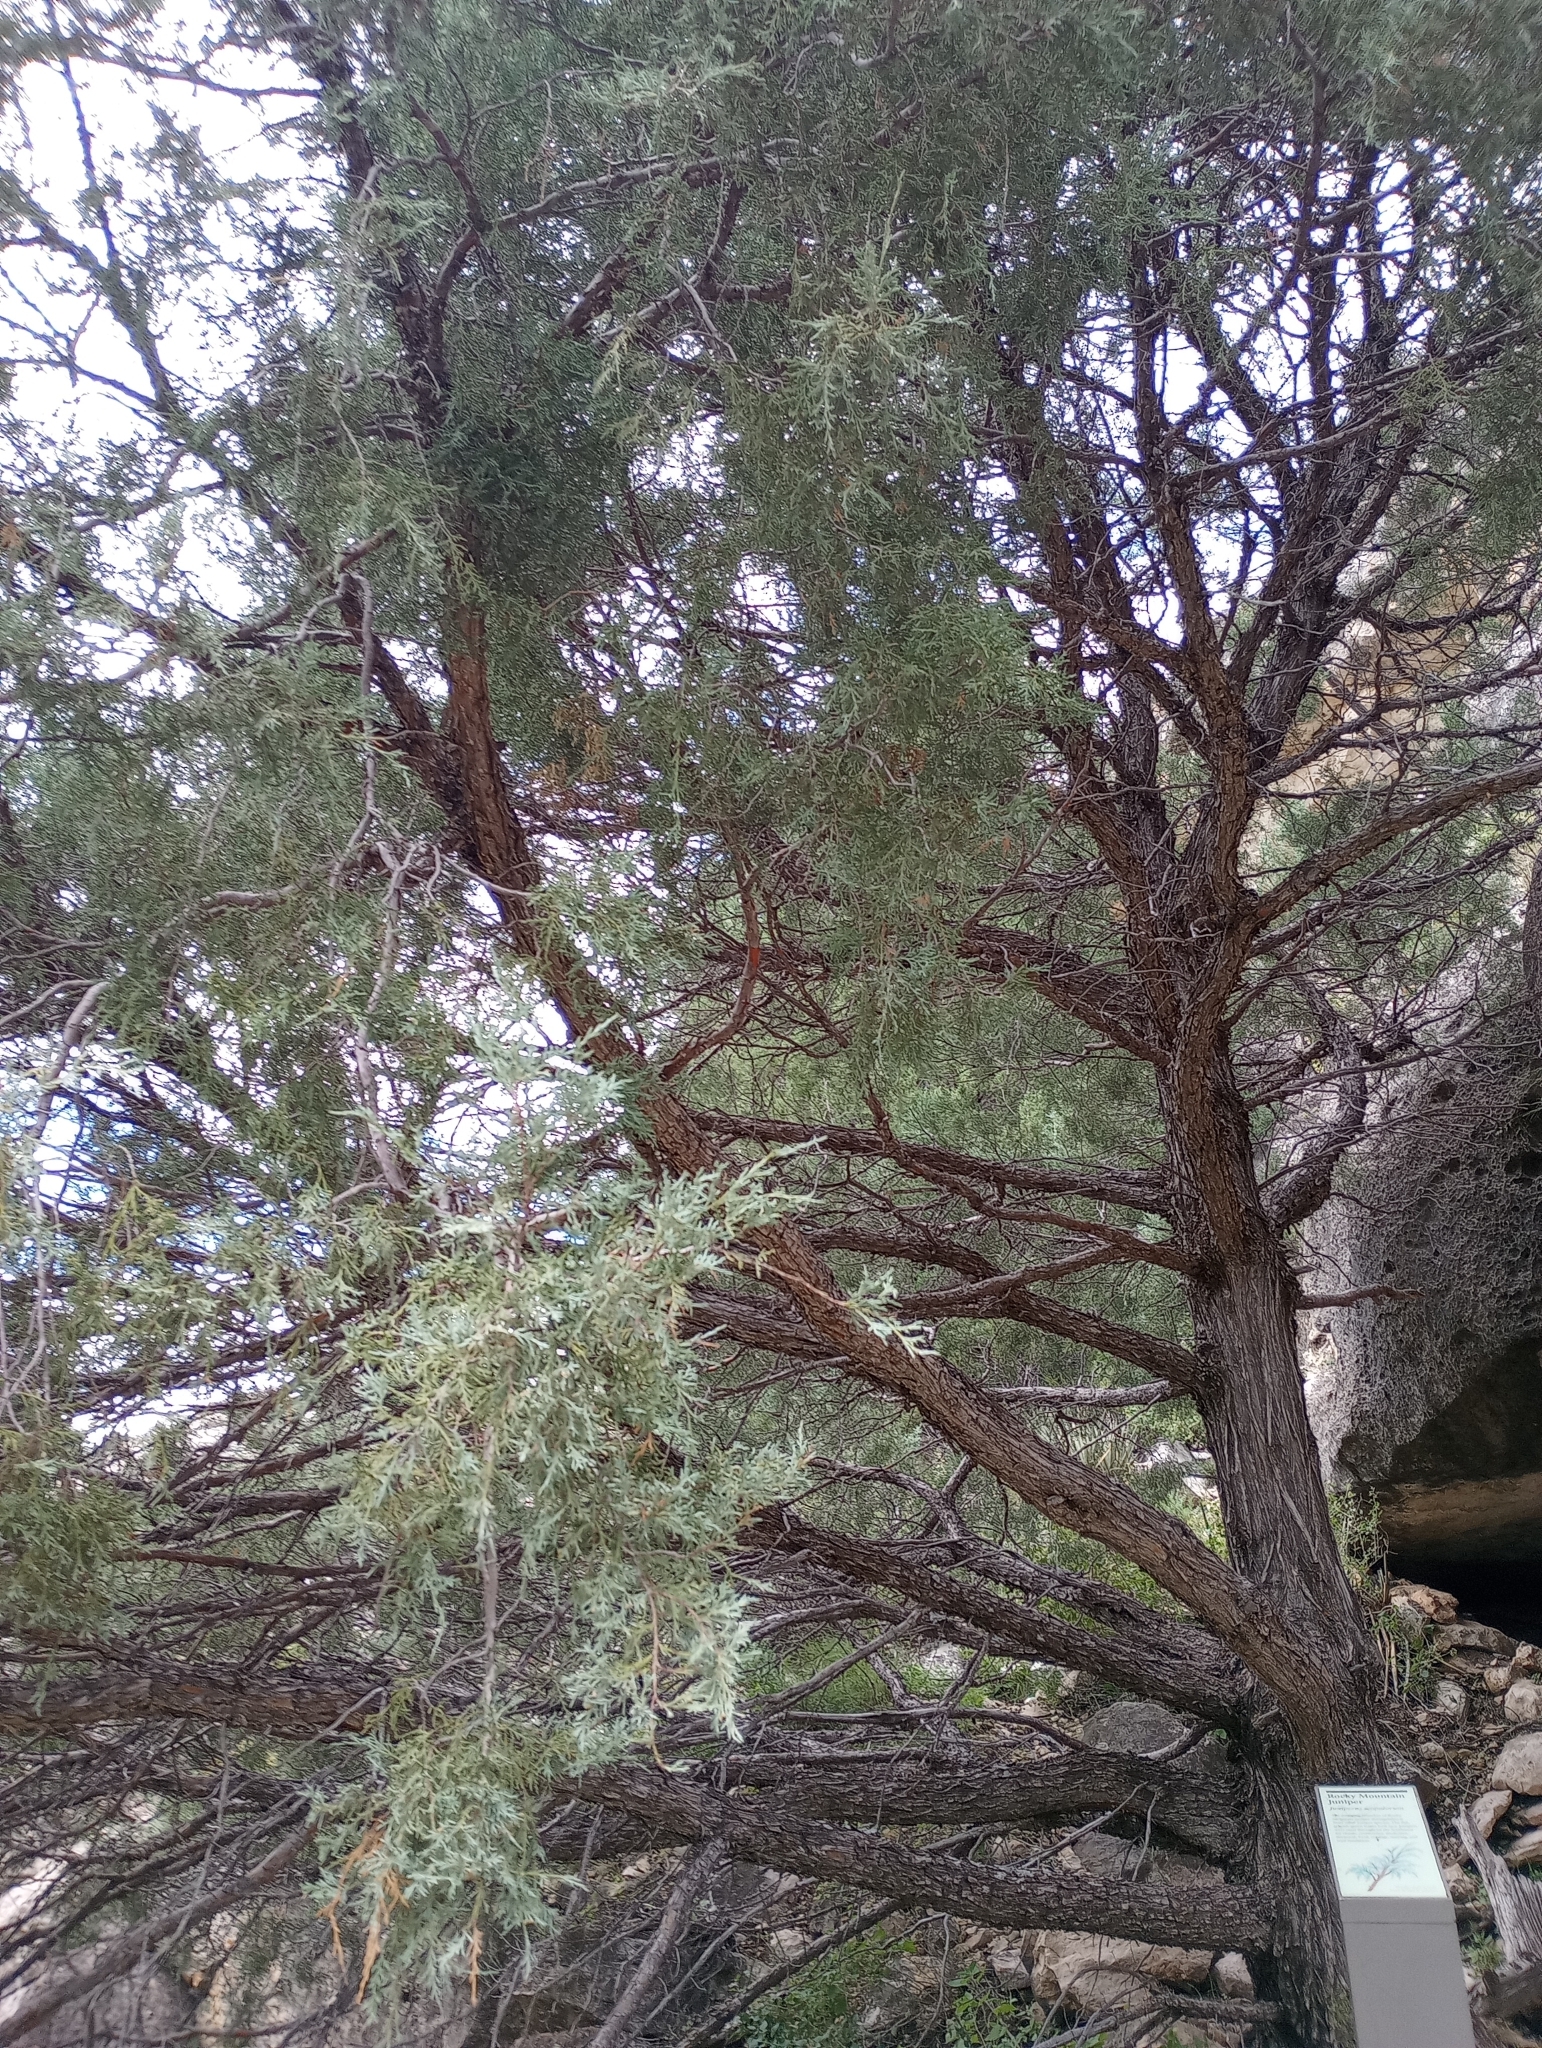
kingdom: Plantae
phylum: Tracheophyta
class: Pinopsida
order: Pinales
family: Cupressaceae
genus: Juniperus
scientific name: Juniperus scopulorum
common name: Rocky mountain juniper
